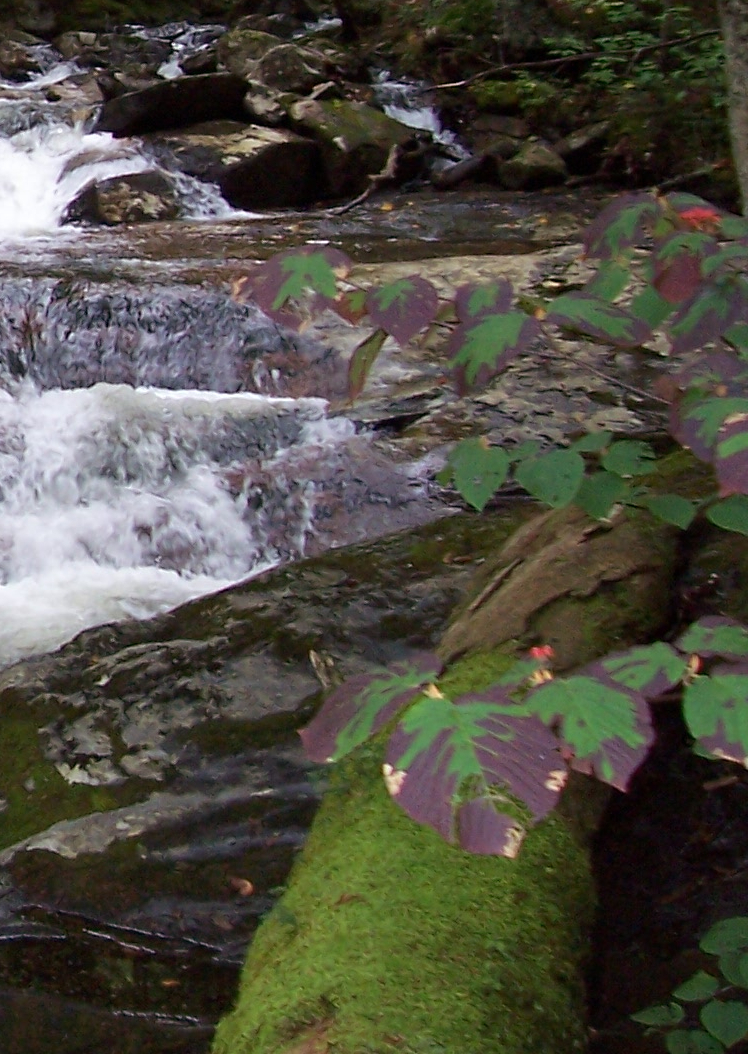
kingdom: Plantae
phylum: Tracheophyta
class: Magnoliopsida
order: Dipsacales
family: Viburnaceae
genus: Viburnum
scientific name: Viburnum lantanoides
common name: Hobblebush
